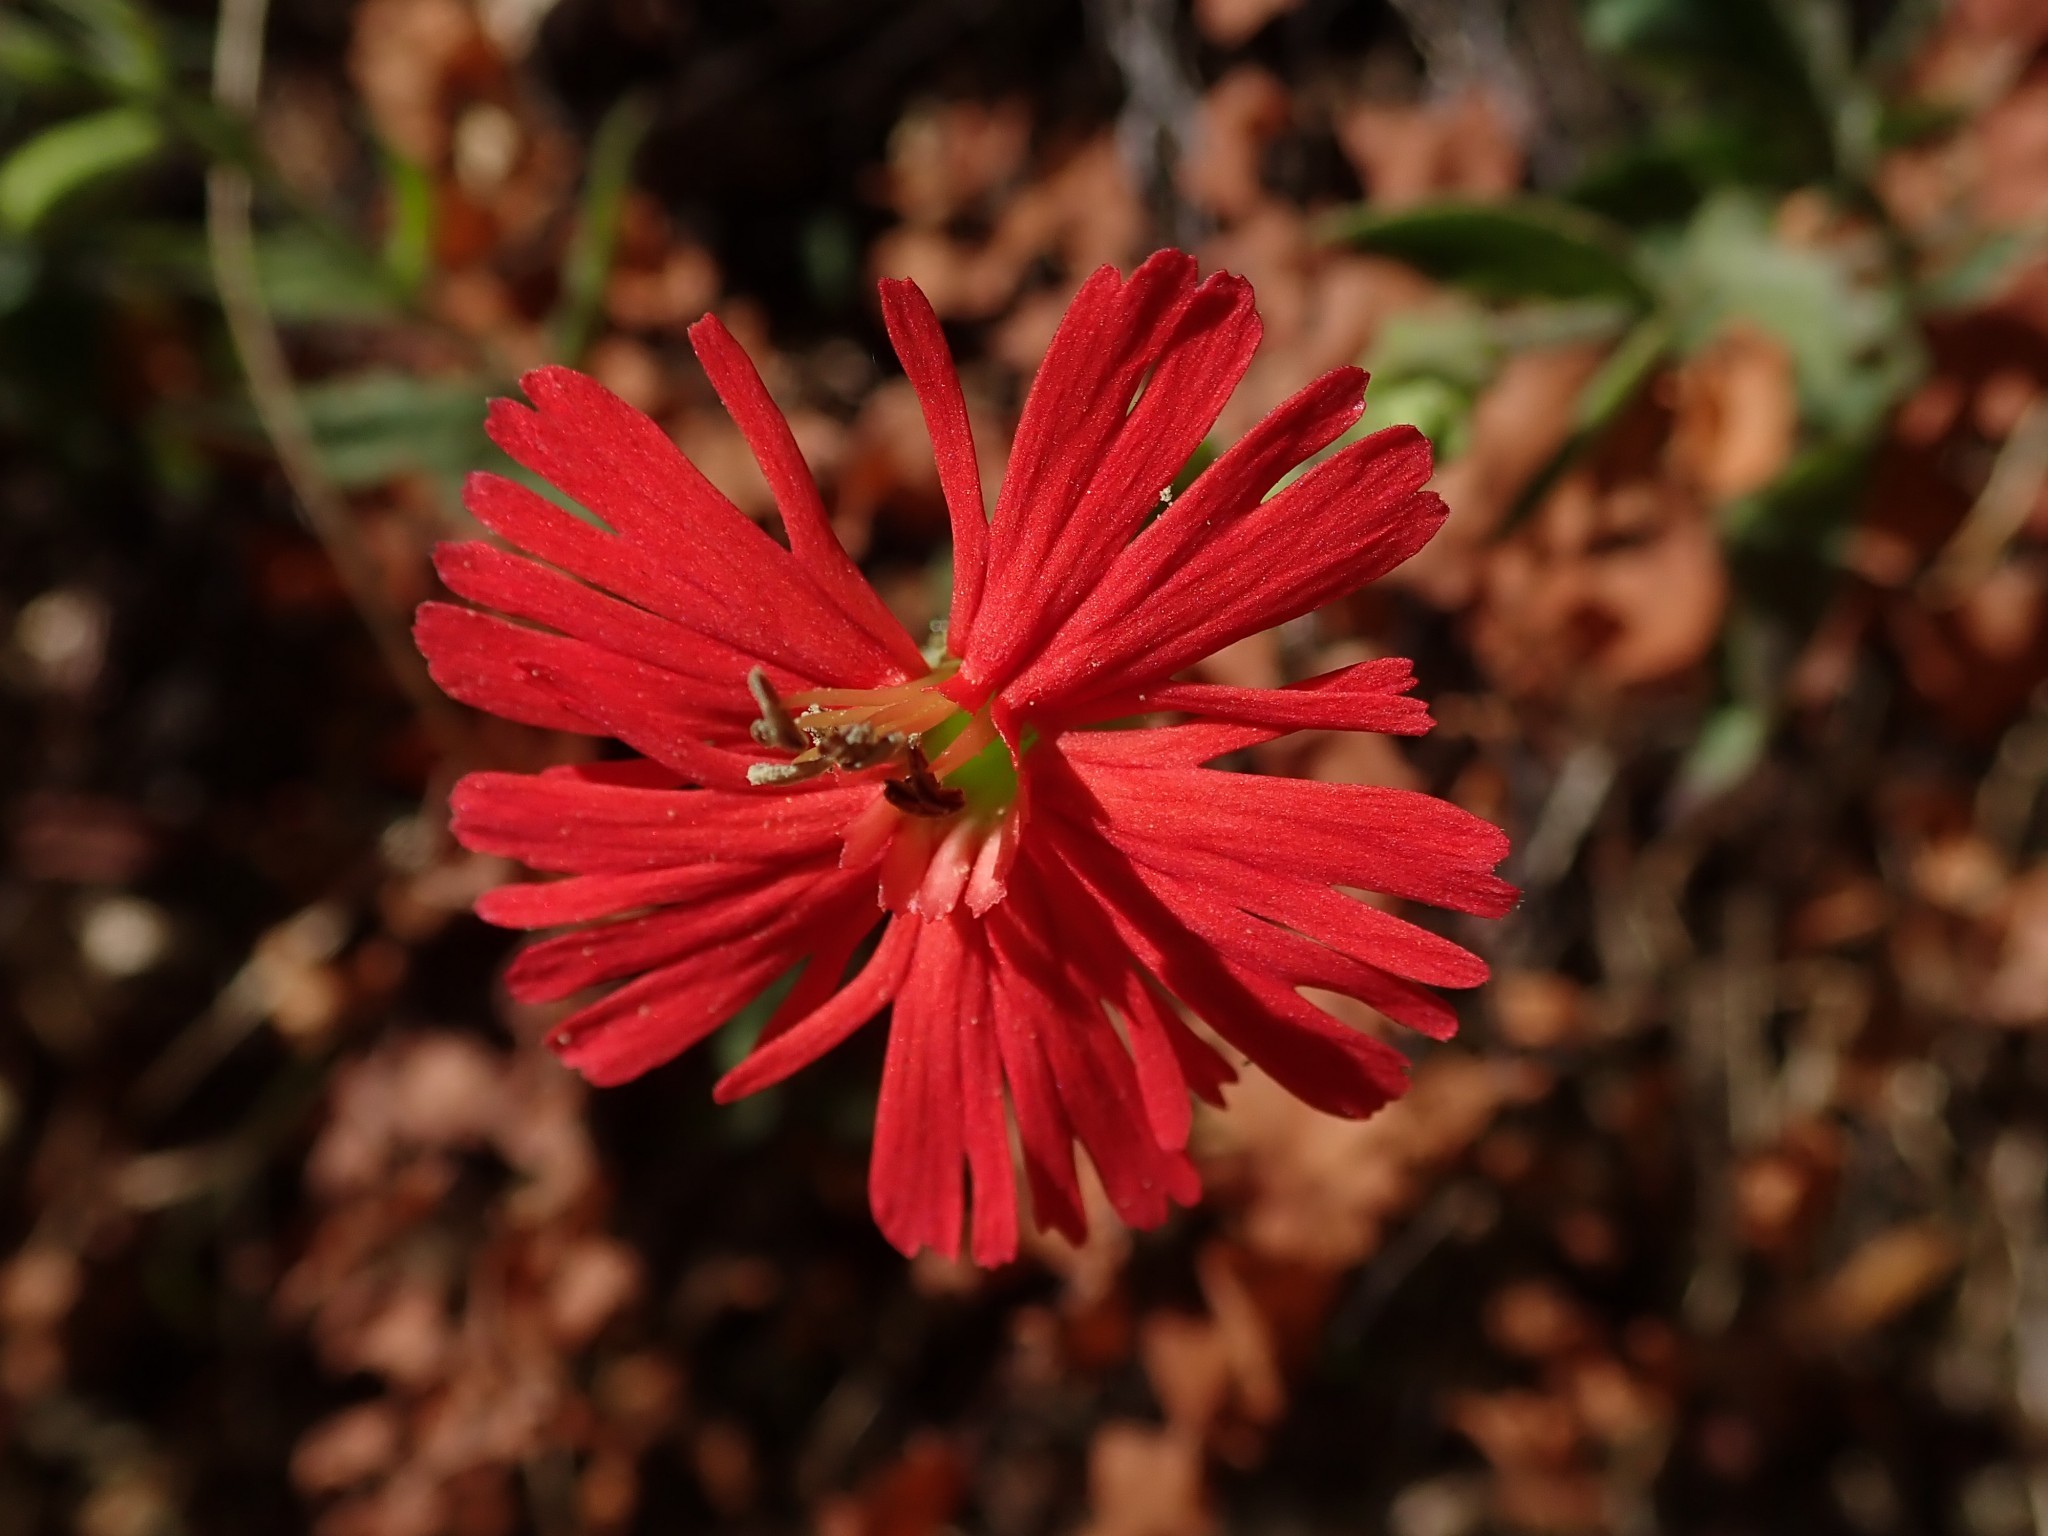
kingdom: Plantae
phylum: Tracheophyta
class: Magnoliopsida
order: Caryophyllales
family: Caryophyllaceae
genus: Silene
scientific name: Silene laciniata
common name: Indian-pink
